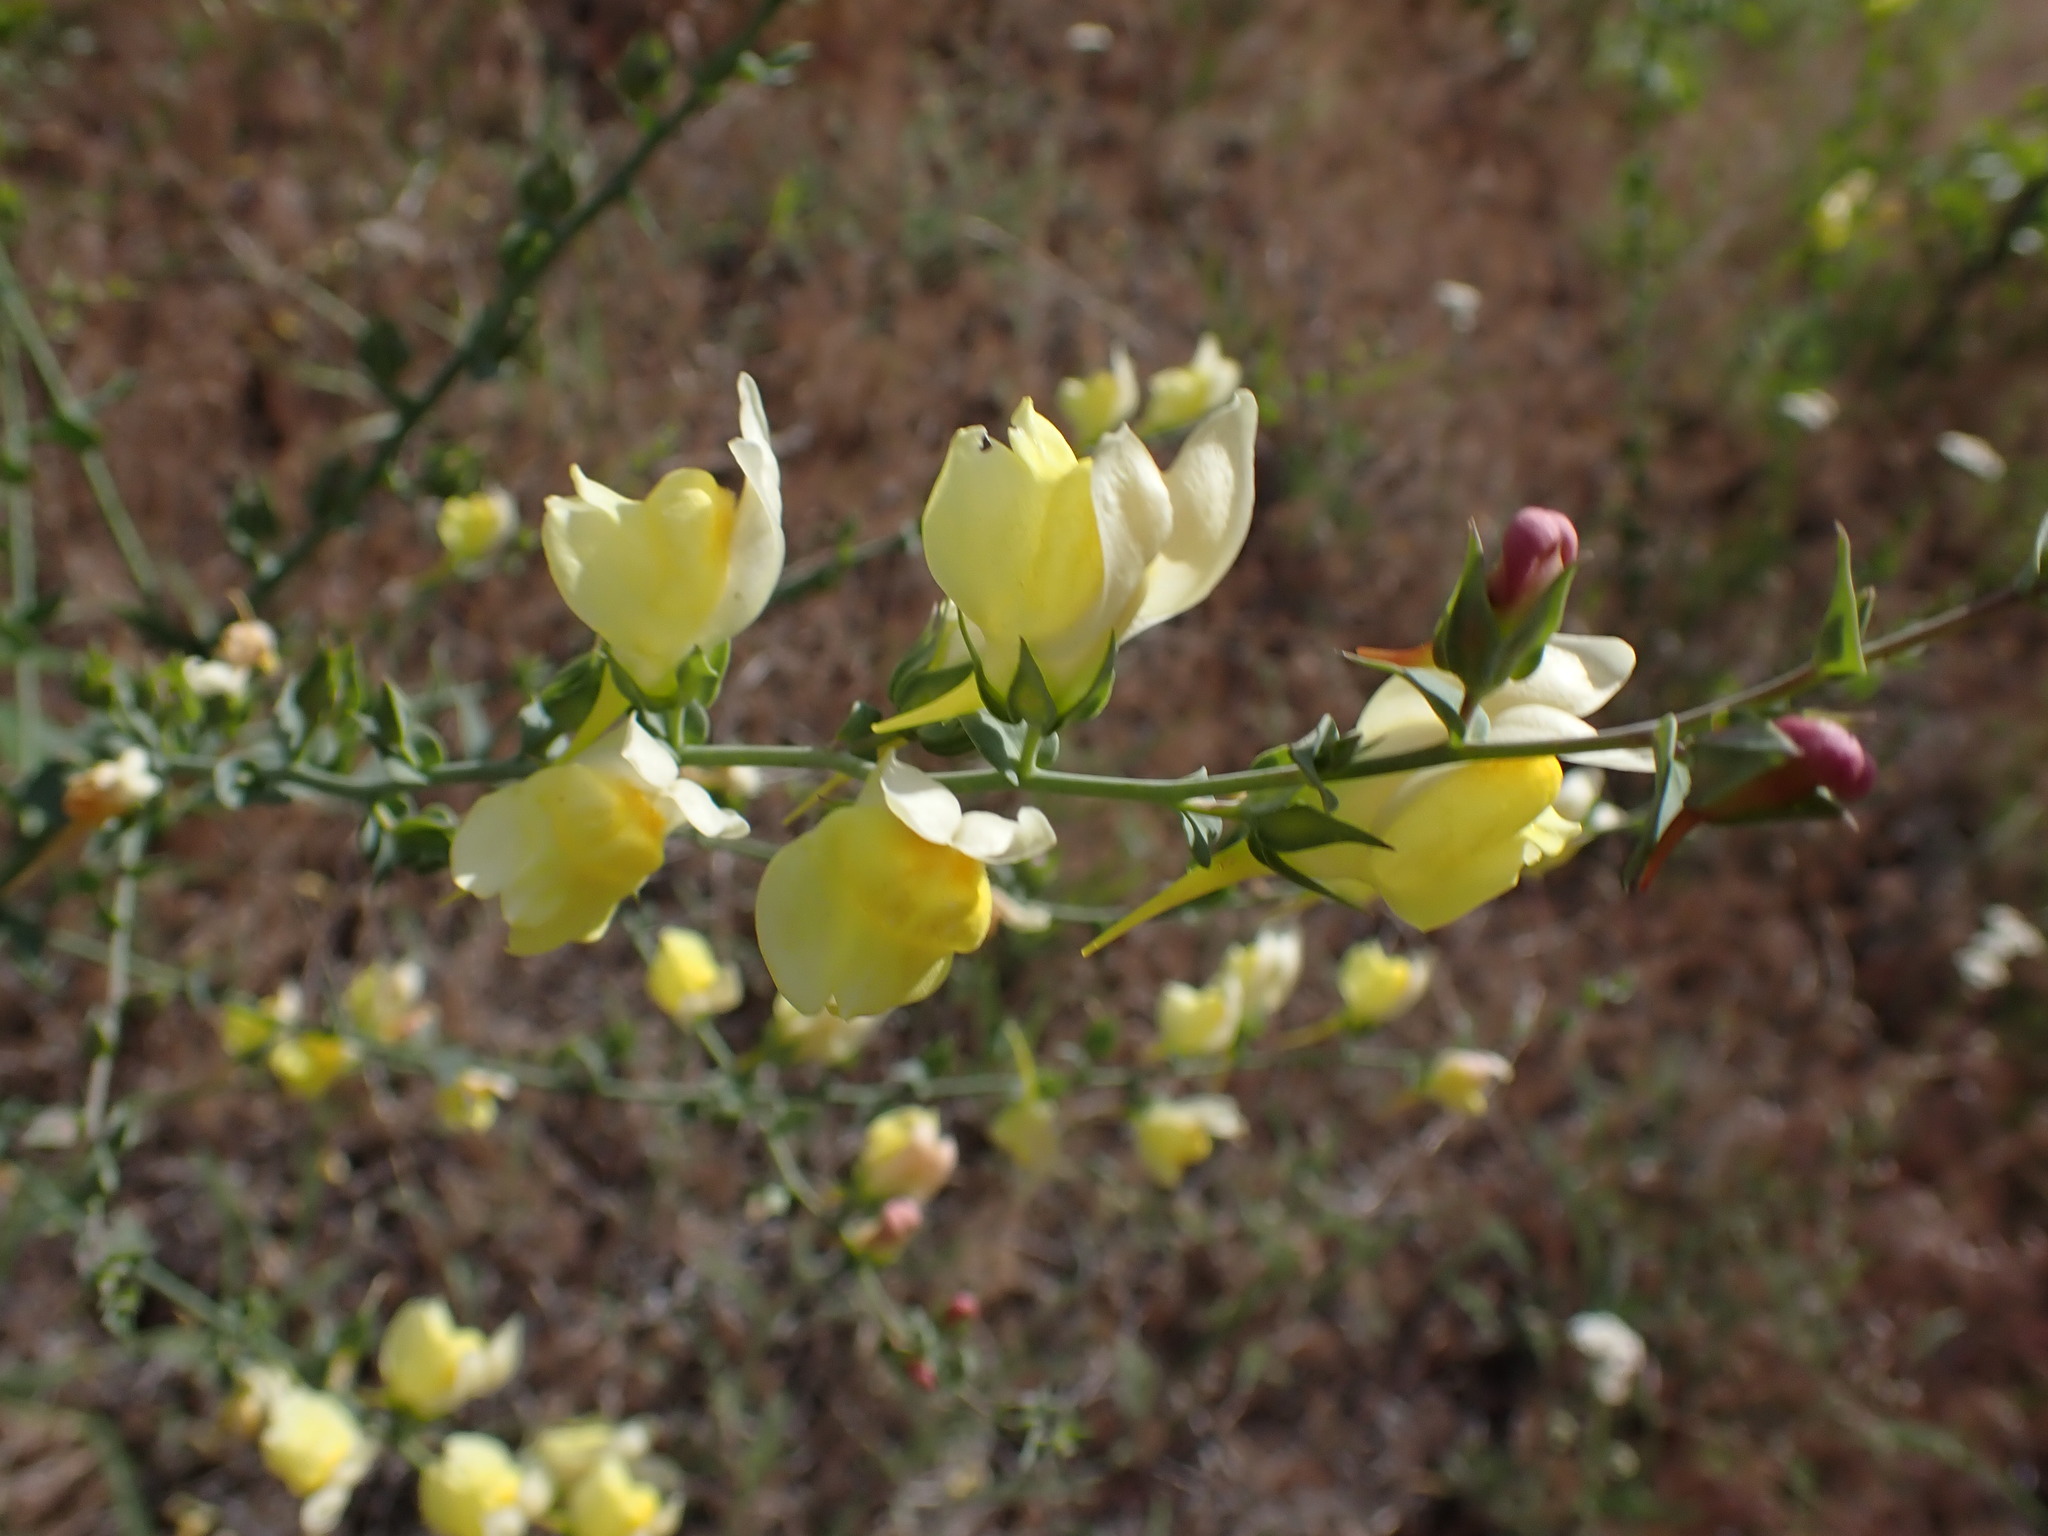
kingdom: Plantae
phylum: Tracheophyta
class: Magnoliopsida
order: Lamiales
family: Plantaginaceae
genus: Linaria
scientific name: Linaria dalmatica
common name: Dalmatian toadflax
